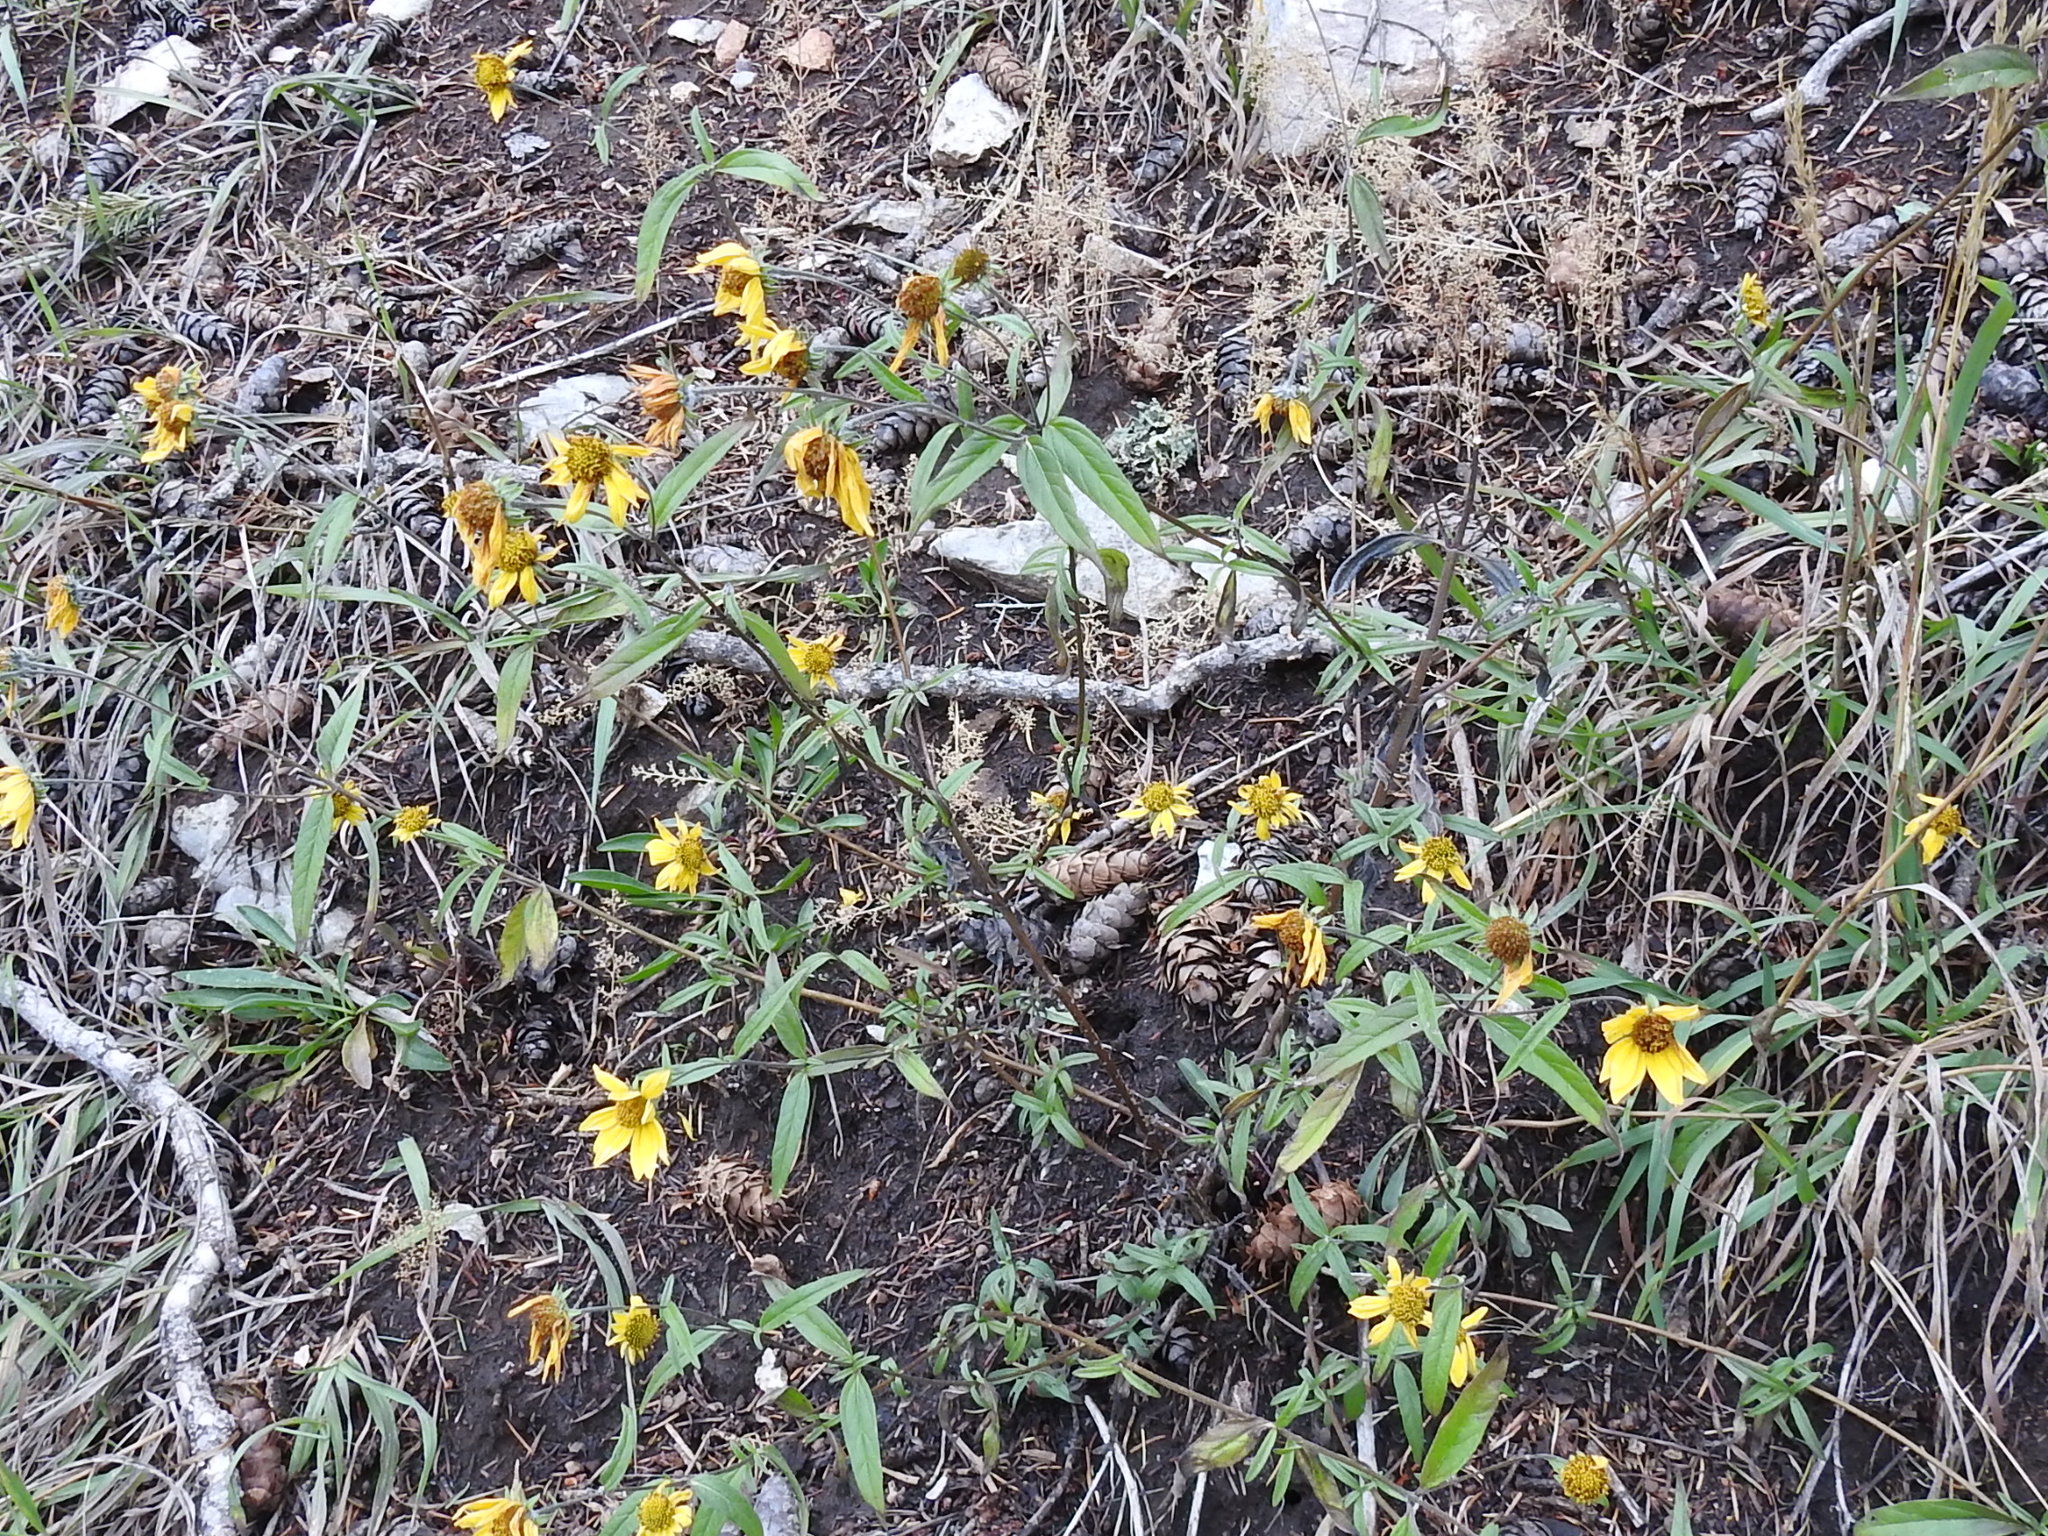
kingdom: Plantae
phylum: Tracheophyta
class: Magnoliopsida
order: Asterales
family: Asteraceae
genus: Heliomeris
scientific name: Heliomeris multiflora
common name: Showy goldeneye
